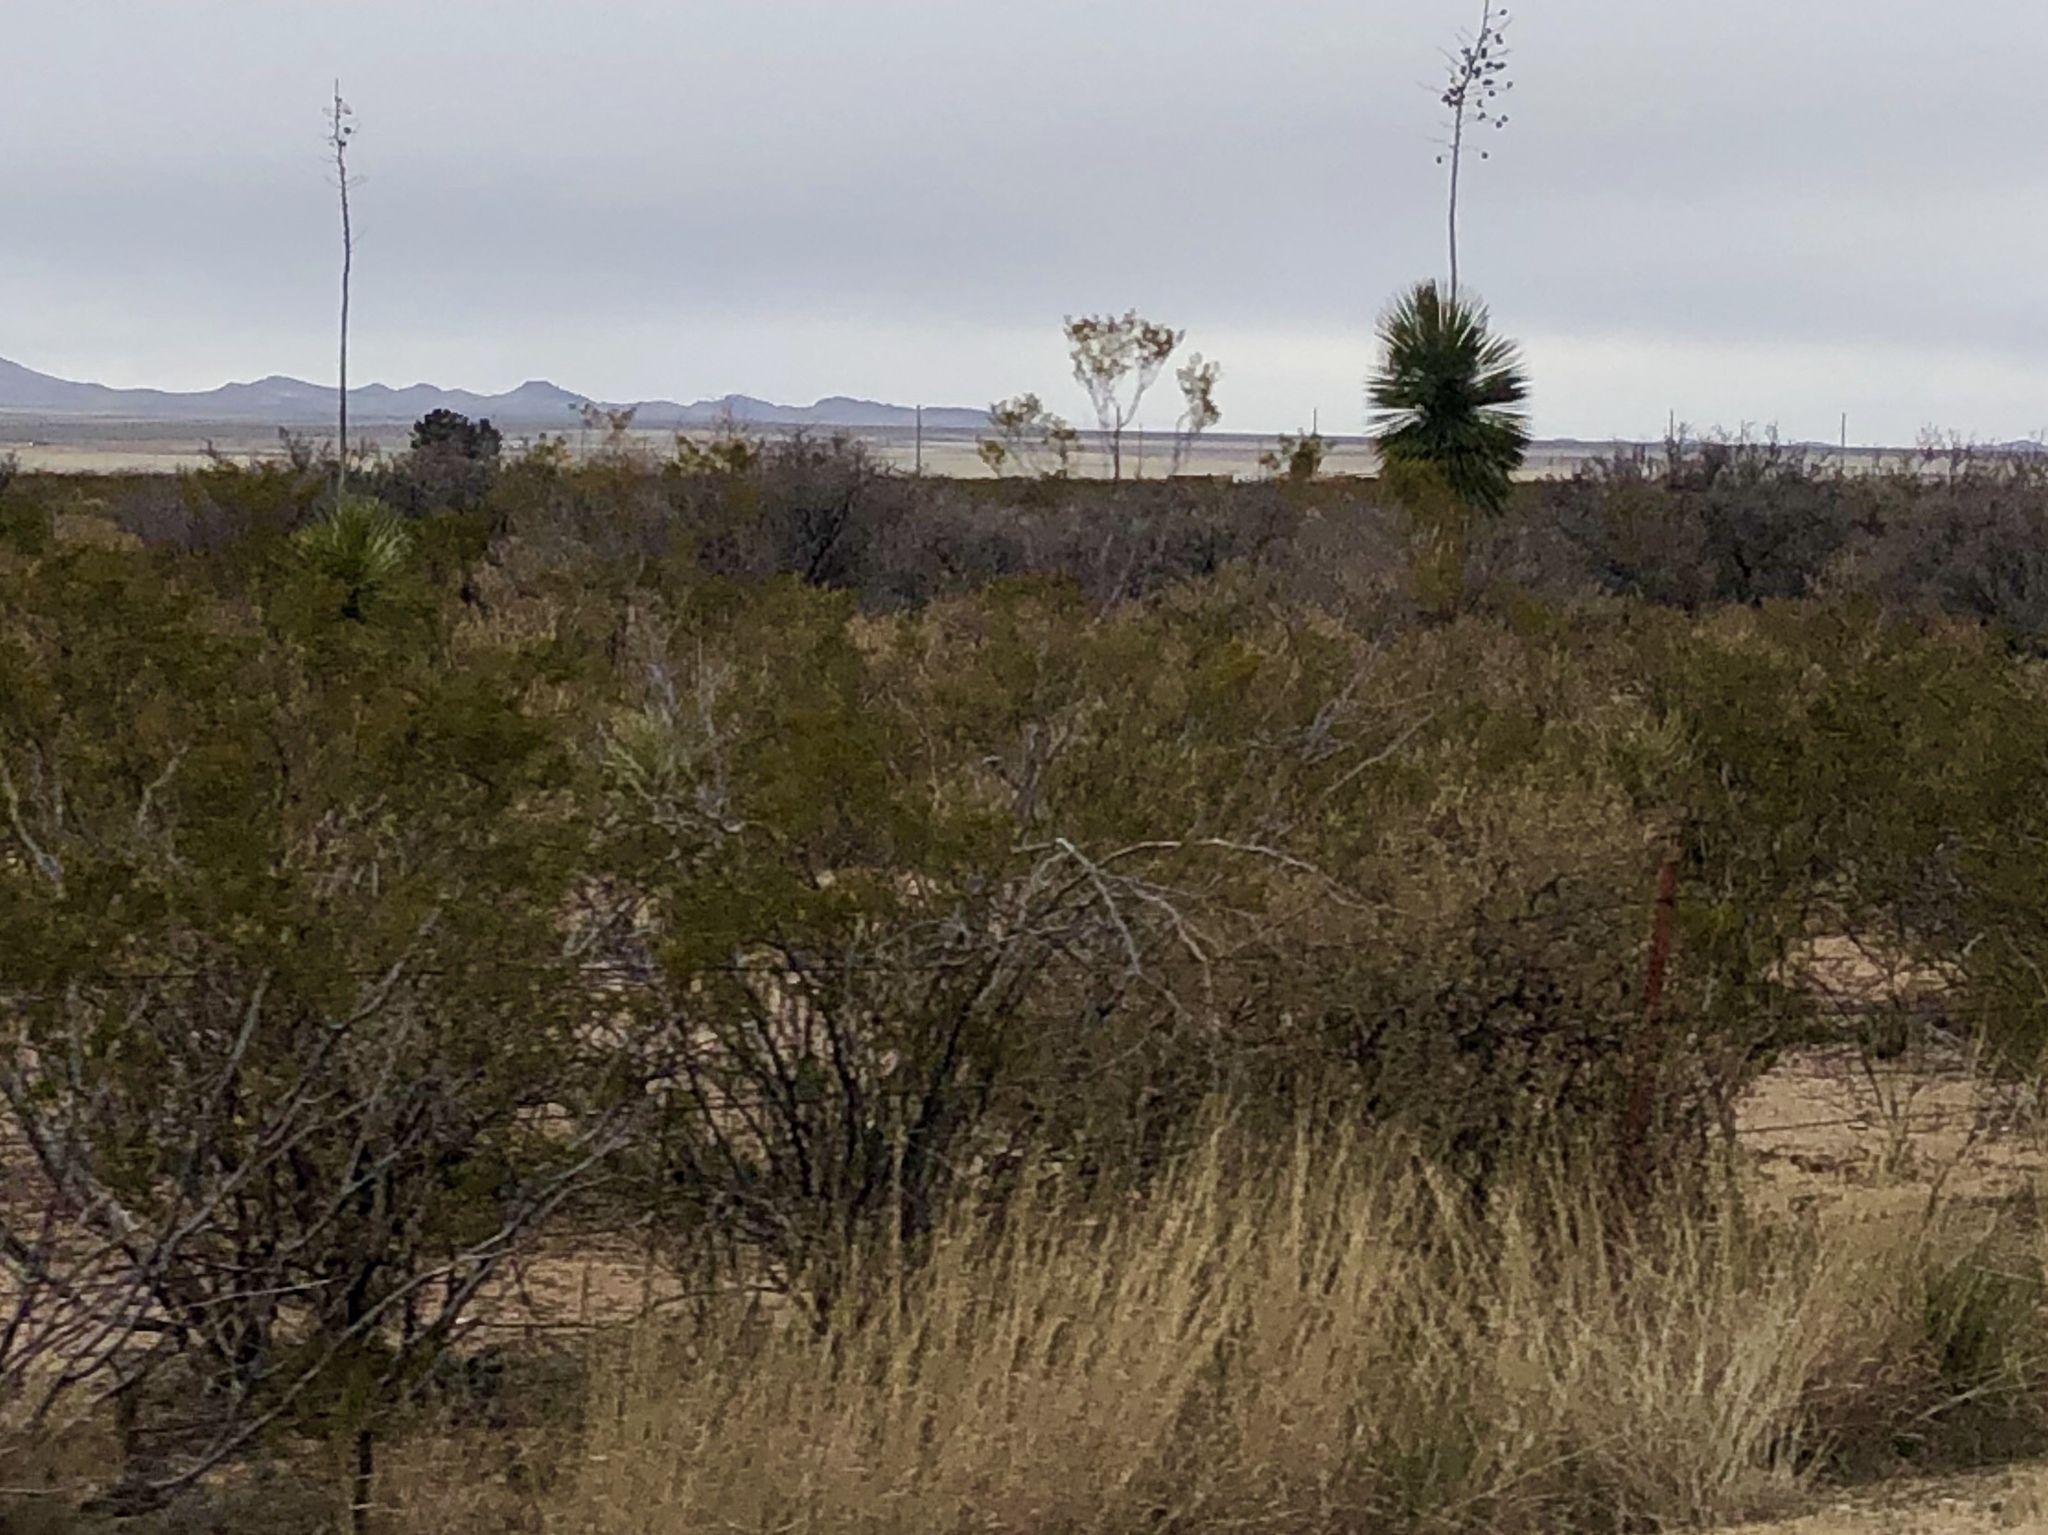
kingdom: Plantae
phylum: Tracheophyta
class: Magnoliopsida
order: Zygophyllales
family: Zygophyllaceae
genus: Larrea
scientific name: Larrea tridentata
